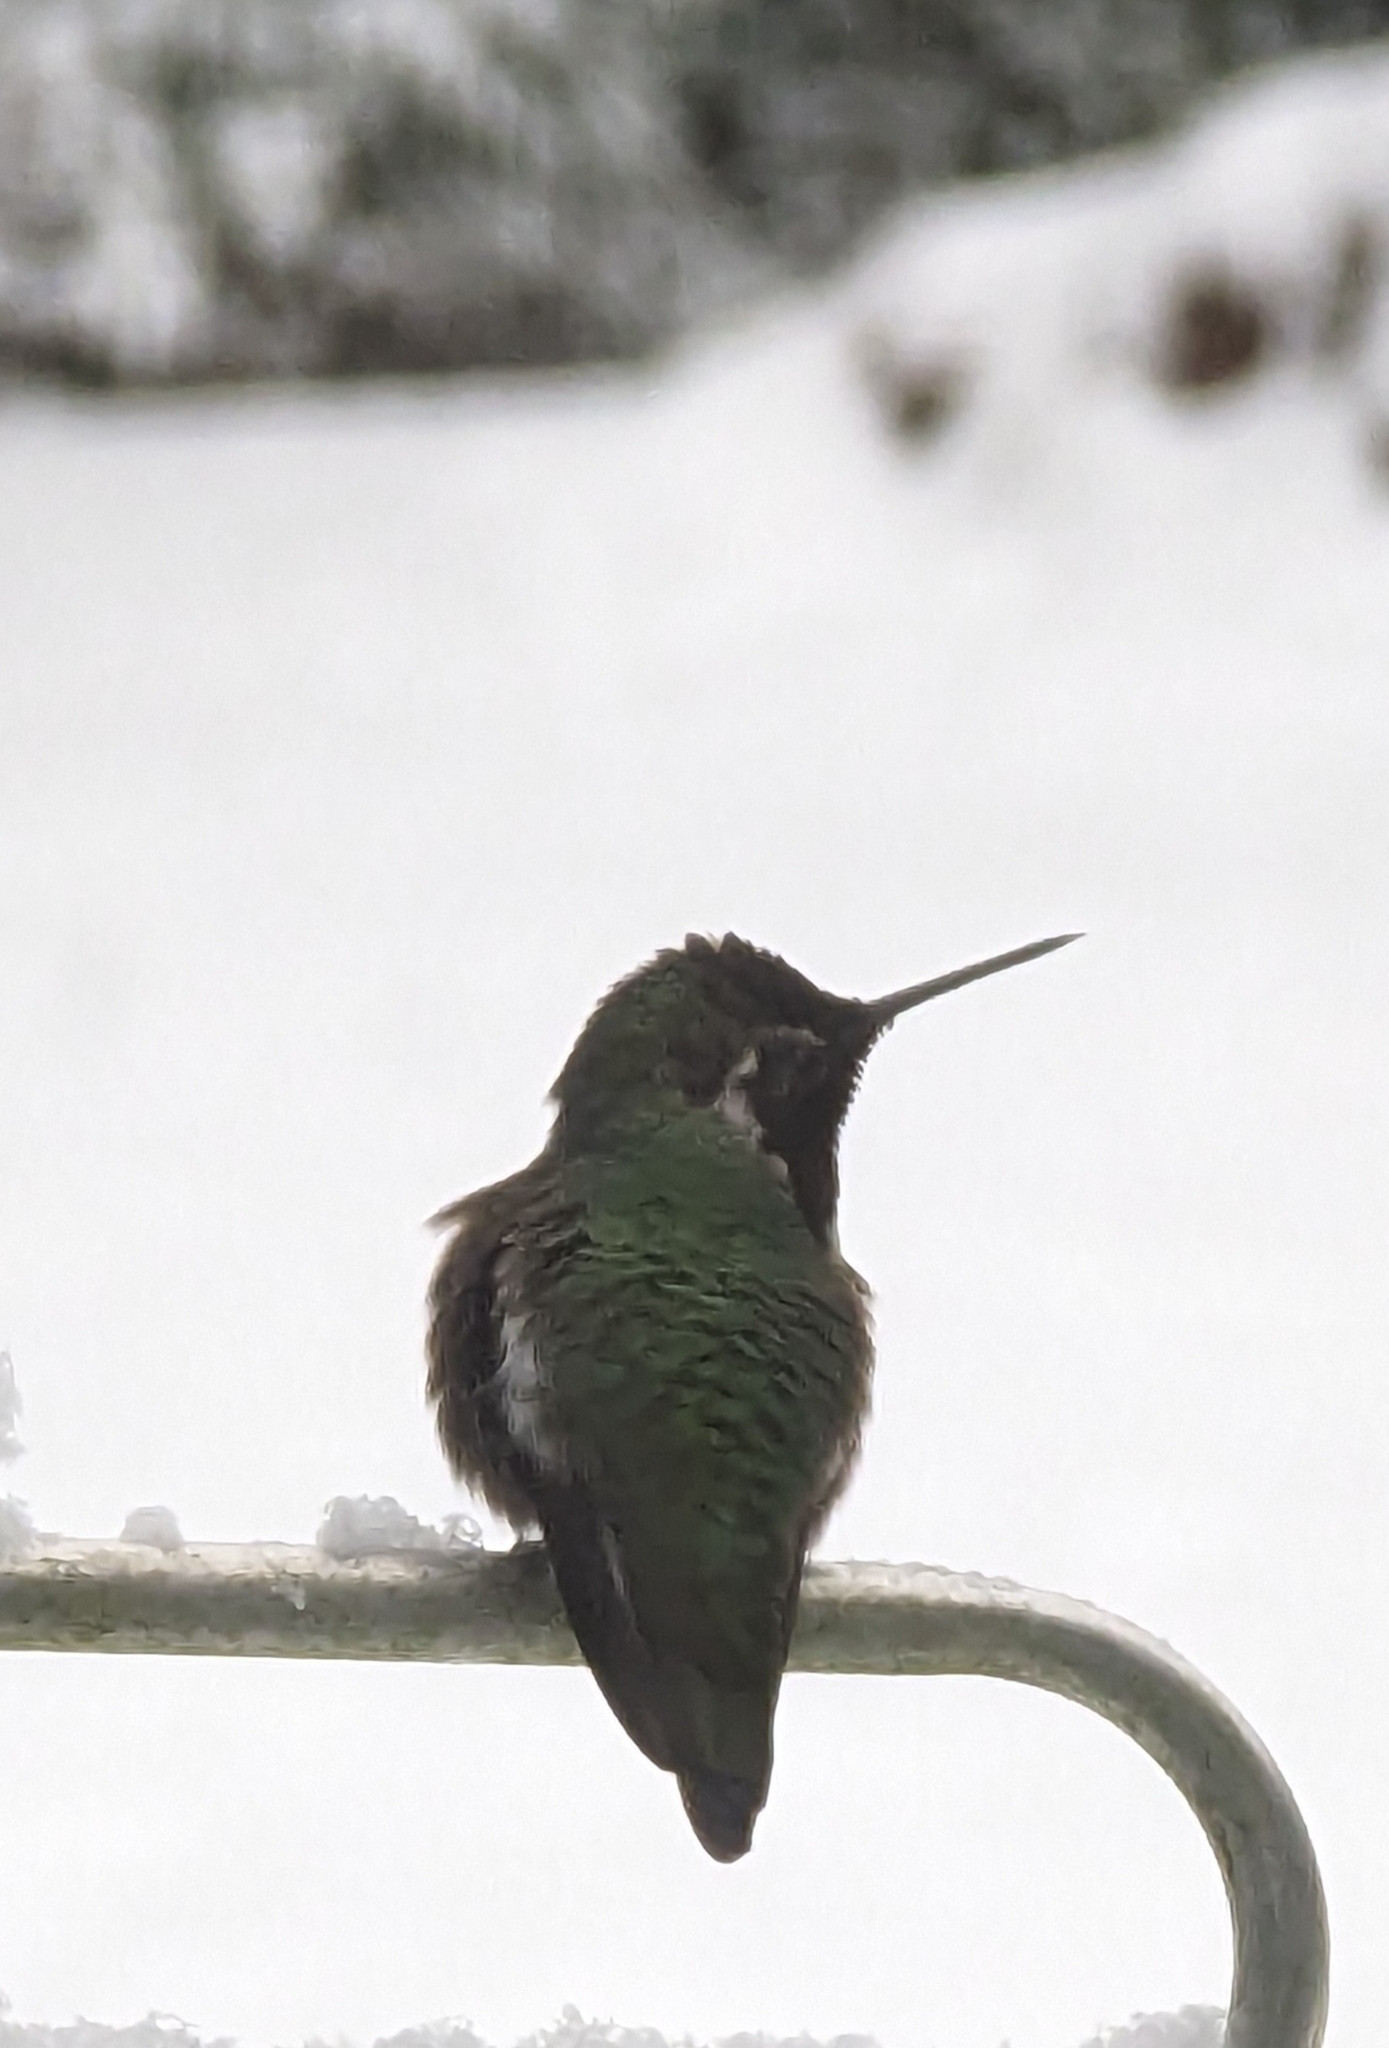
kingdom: Animalia
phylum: Chordata
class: Aves
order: Apodiformes
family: Trochilidae
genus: Calypte
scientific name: Calypte anna
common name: Anna's hummingbird
